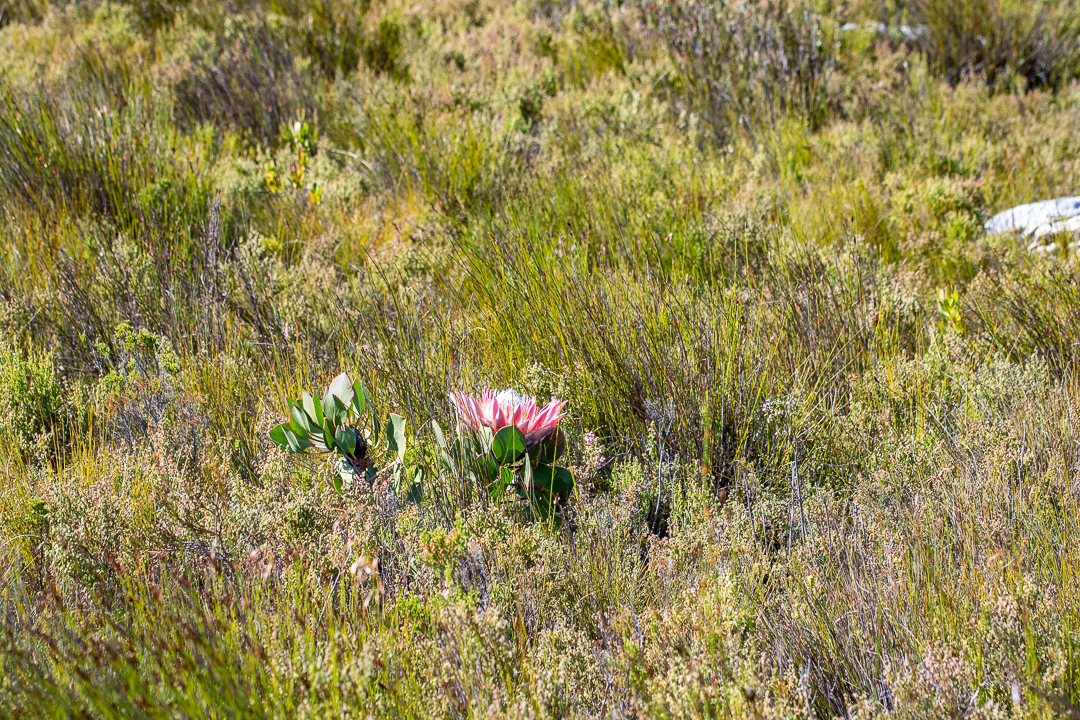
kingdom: Plantae
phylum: Tracheophyta
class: Magnoliopsida
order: Proteales
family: Proteaceae
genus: Protea
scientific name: Protea cynaroides
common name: King protea
